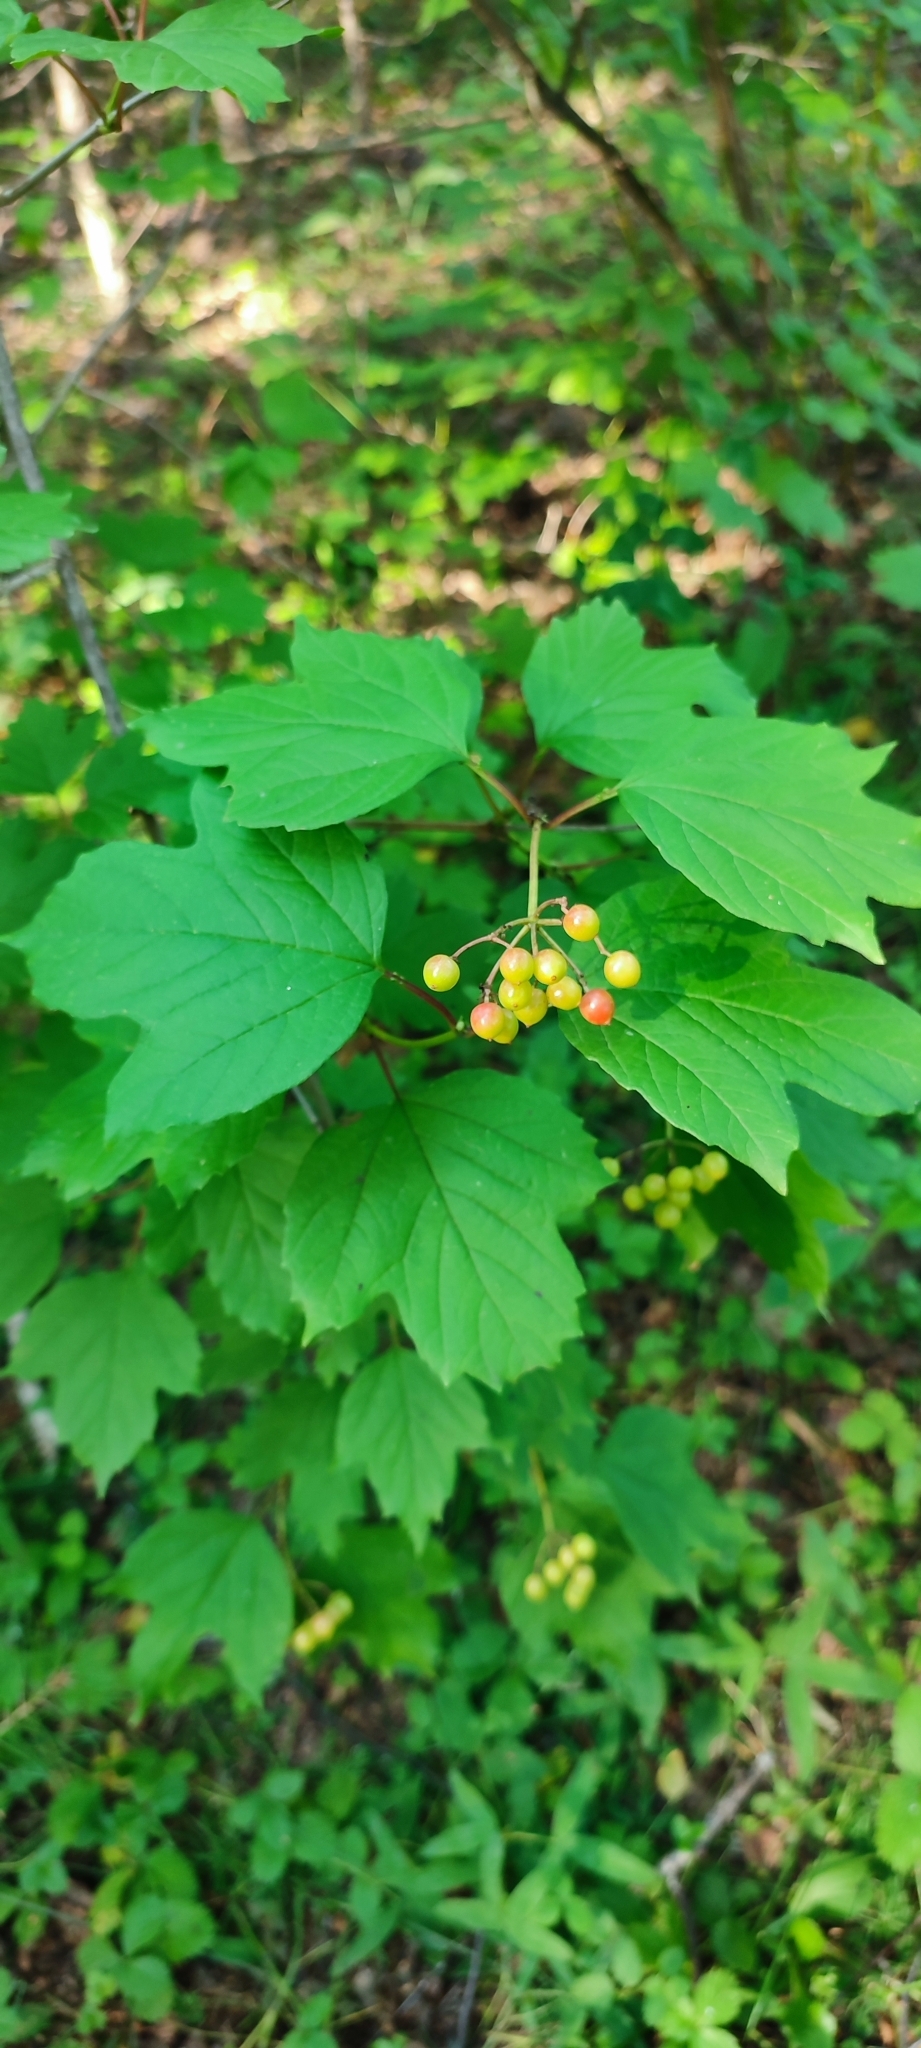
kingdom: Plantae
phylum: Tracheophyta
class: Magnoliopsida
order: Dipsacales
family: Viburnaceae
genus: Viburnum
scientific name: Viburnum opulus
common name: Guelder-rose
